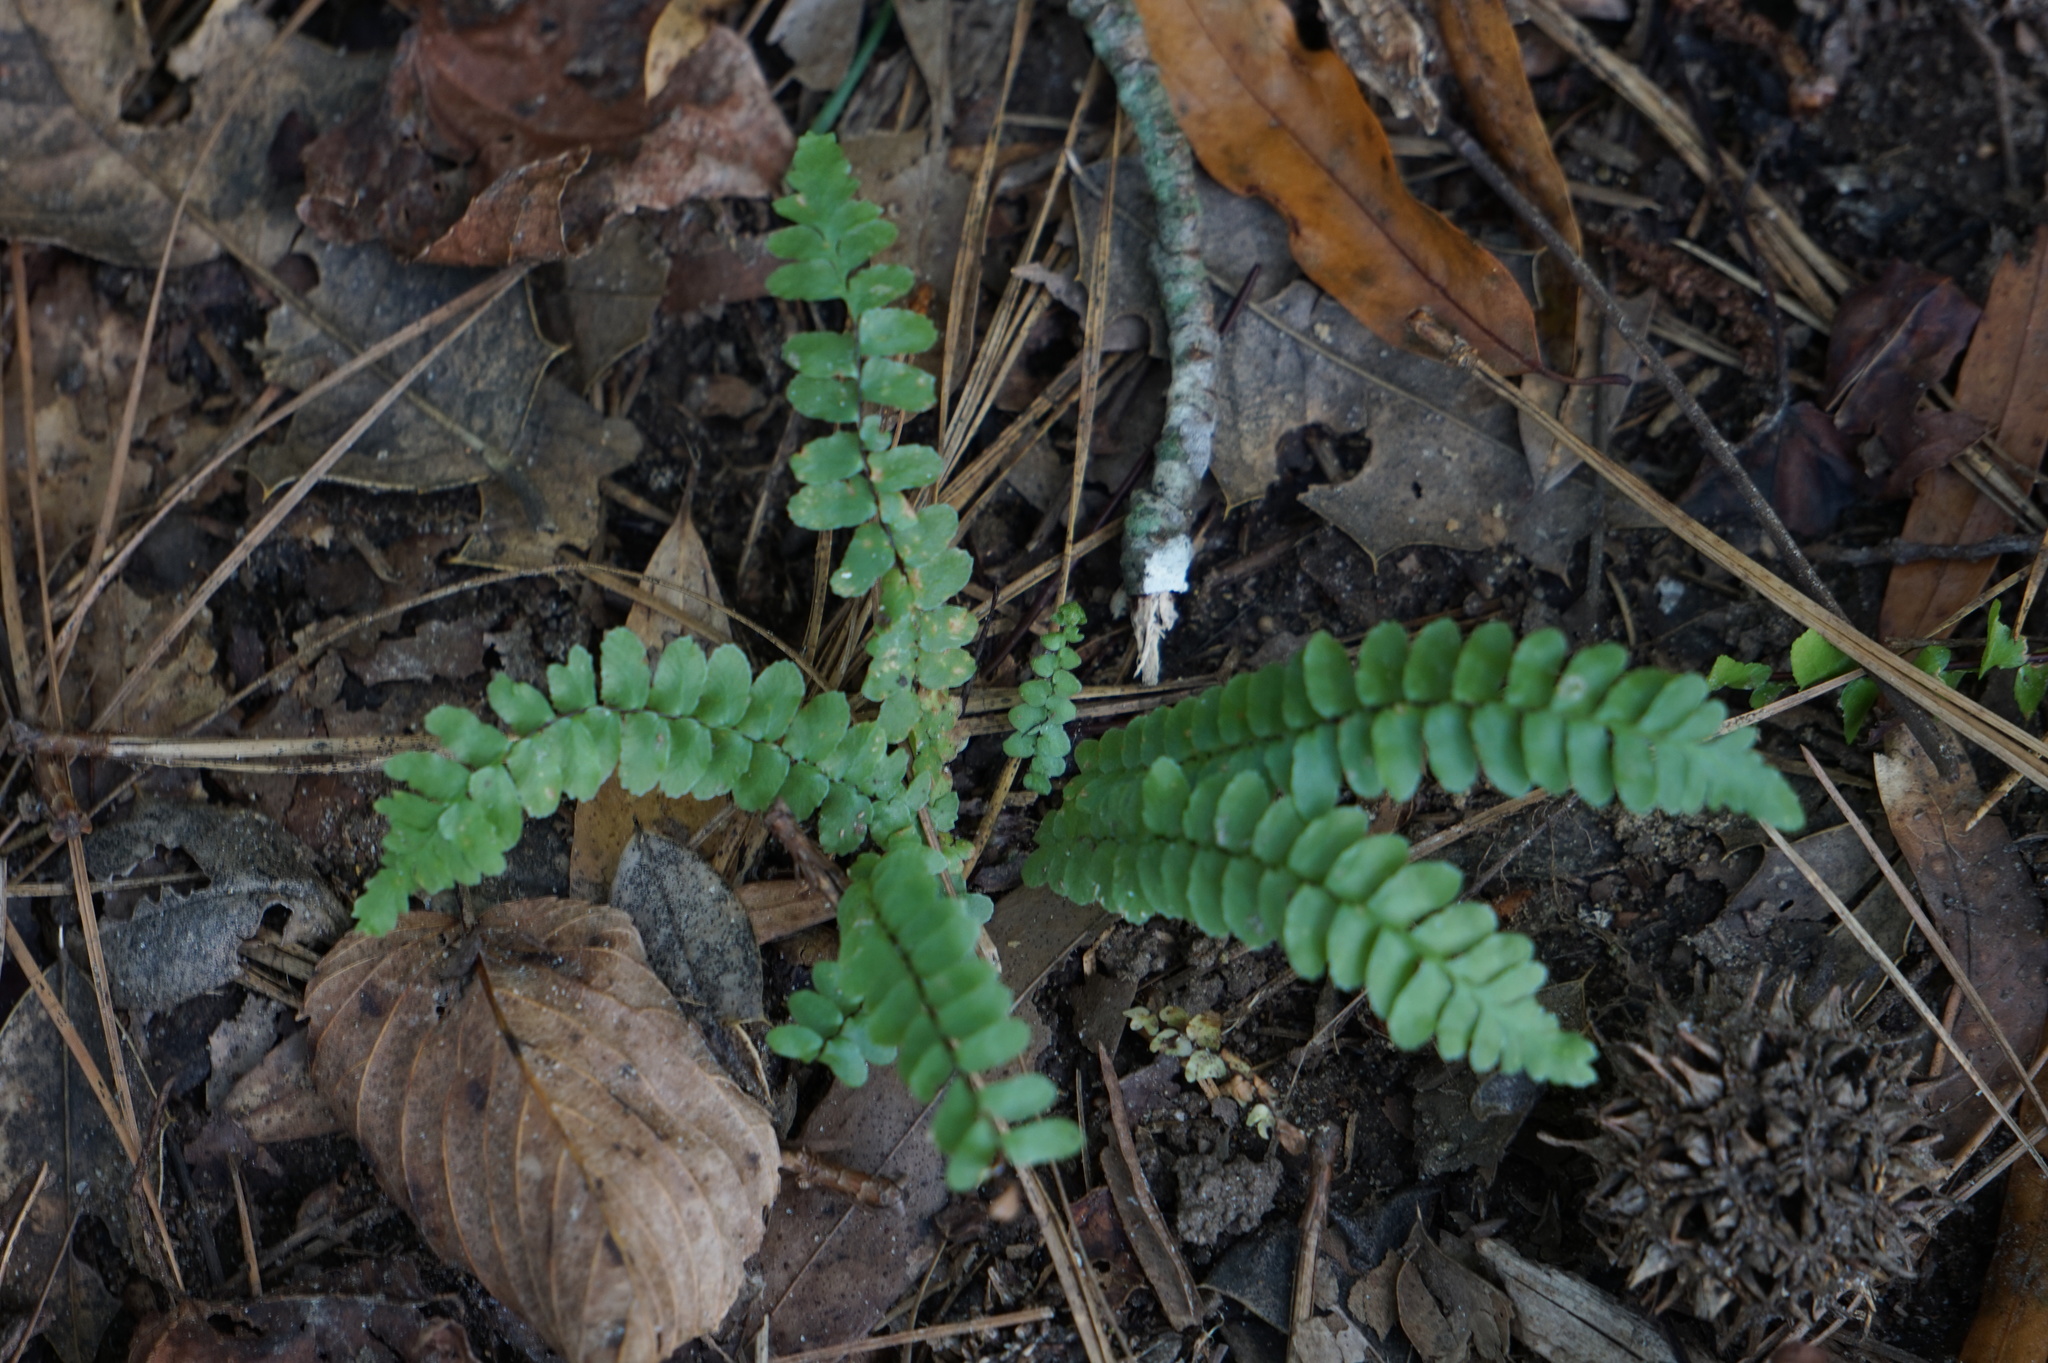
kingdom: Plantae
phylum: Tracheophyta
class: Polypodiopsida
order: Polypodiales
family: Aspleniaceae
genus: Asplenium
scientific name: Asplenium platyneuron
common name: Ebony spleenwort
